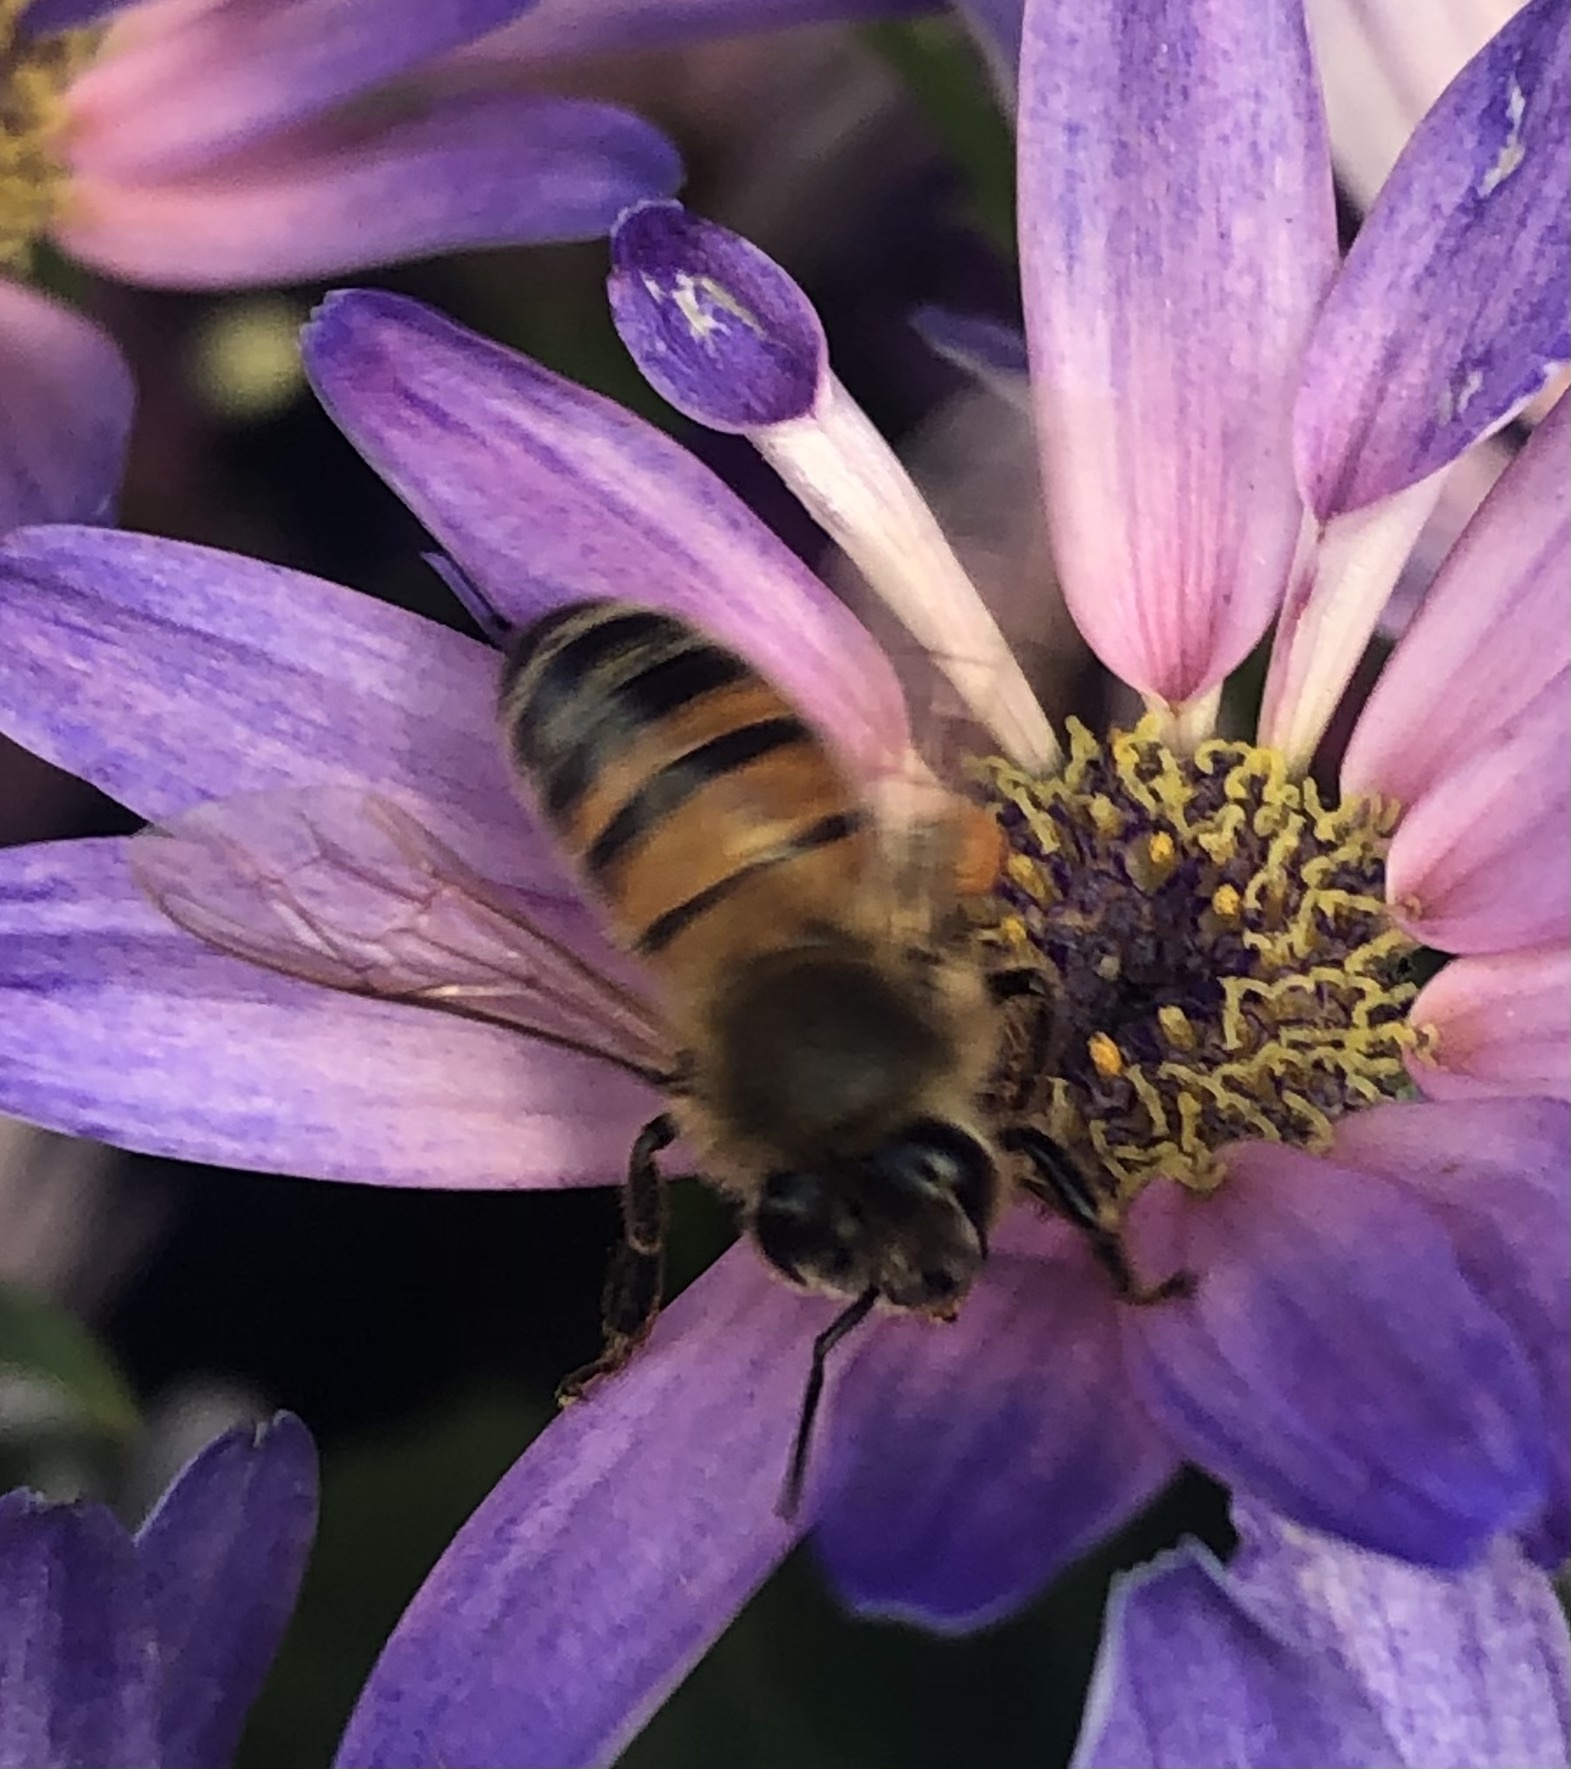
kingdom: Animalia
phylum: Arthropoda
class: Insecta
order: Hymenoptera
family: Apidae
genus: Apis
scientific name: Apis mellifera
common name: Honey bee
